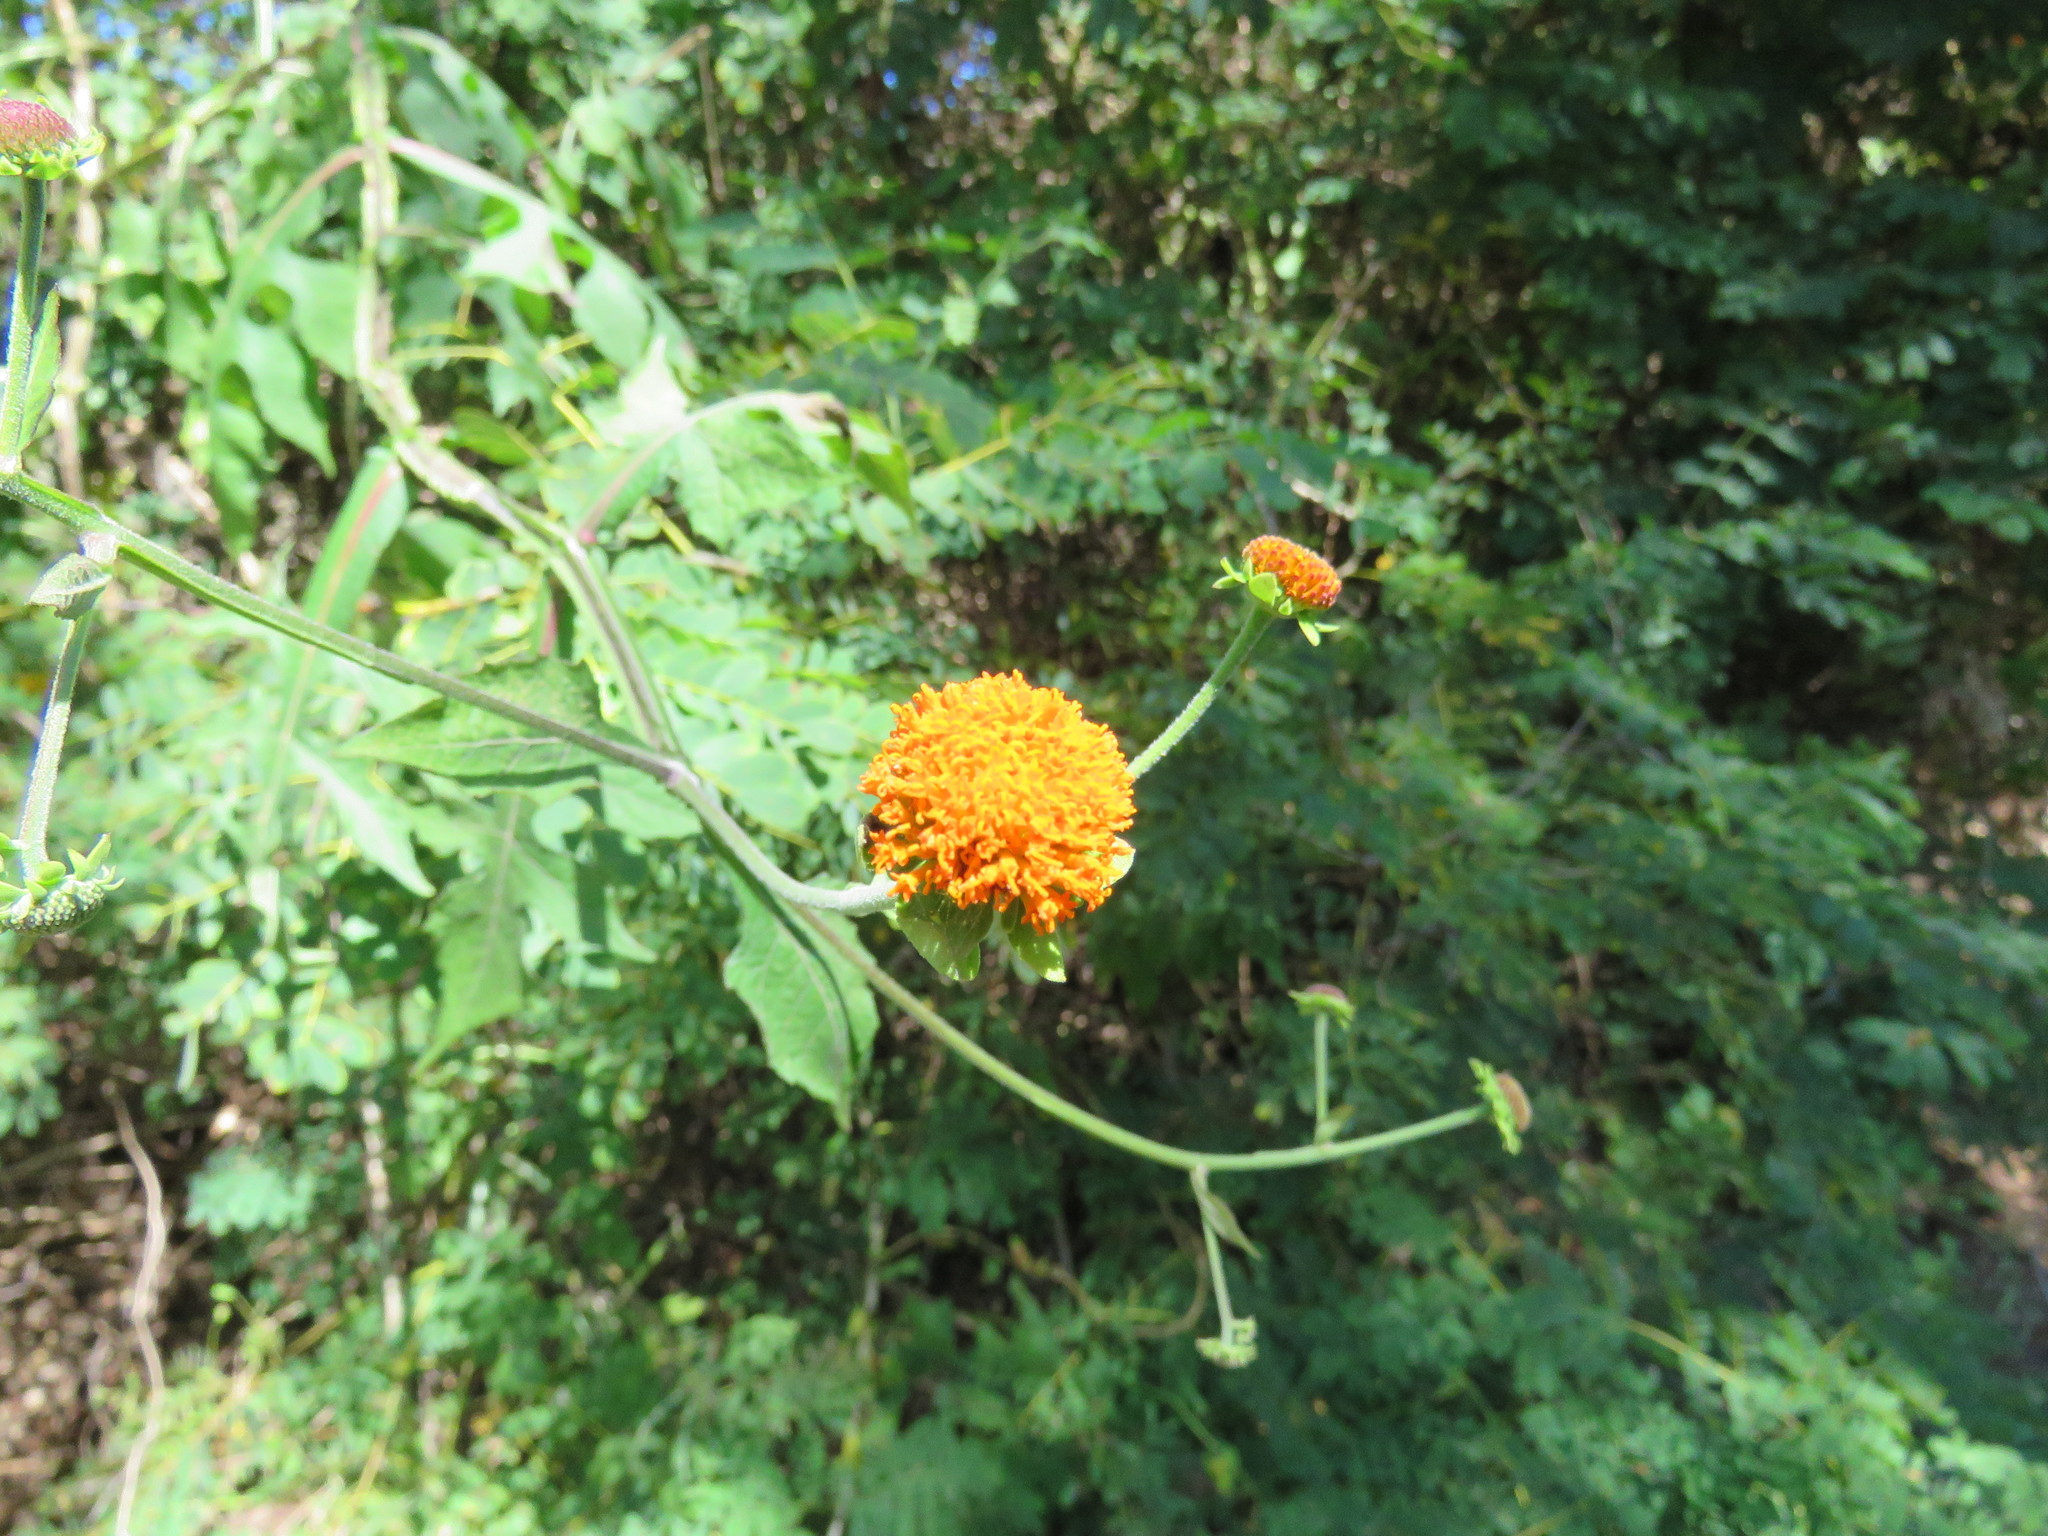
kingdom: Plantae
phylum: Tracheophyta
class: Magnoliopsida
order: Asterales
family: Asteraceae
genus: Verbesina
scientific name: Verbesina crocata
